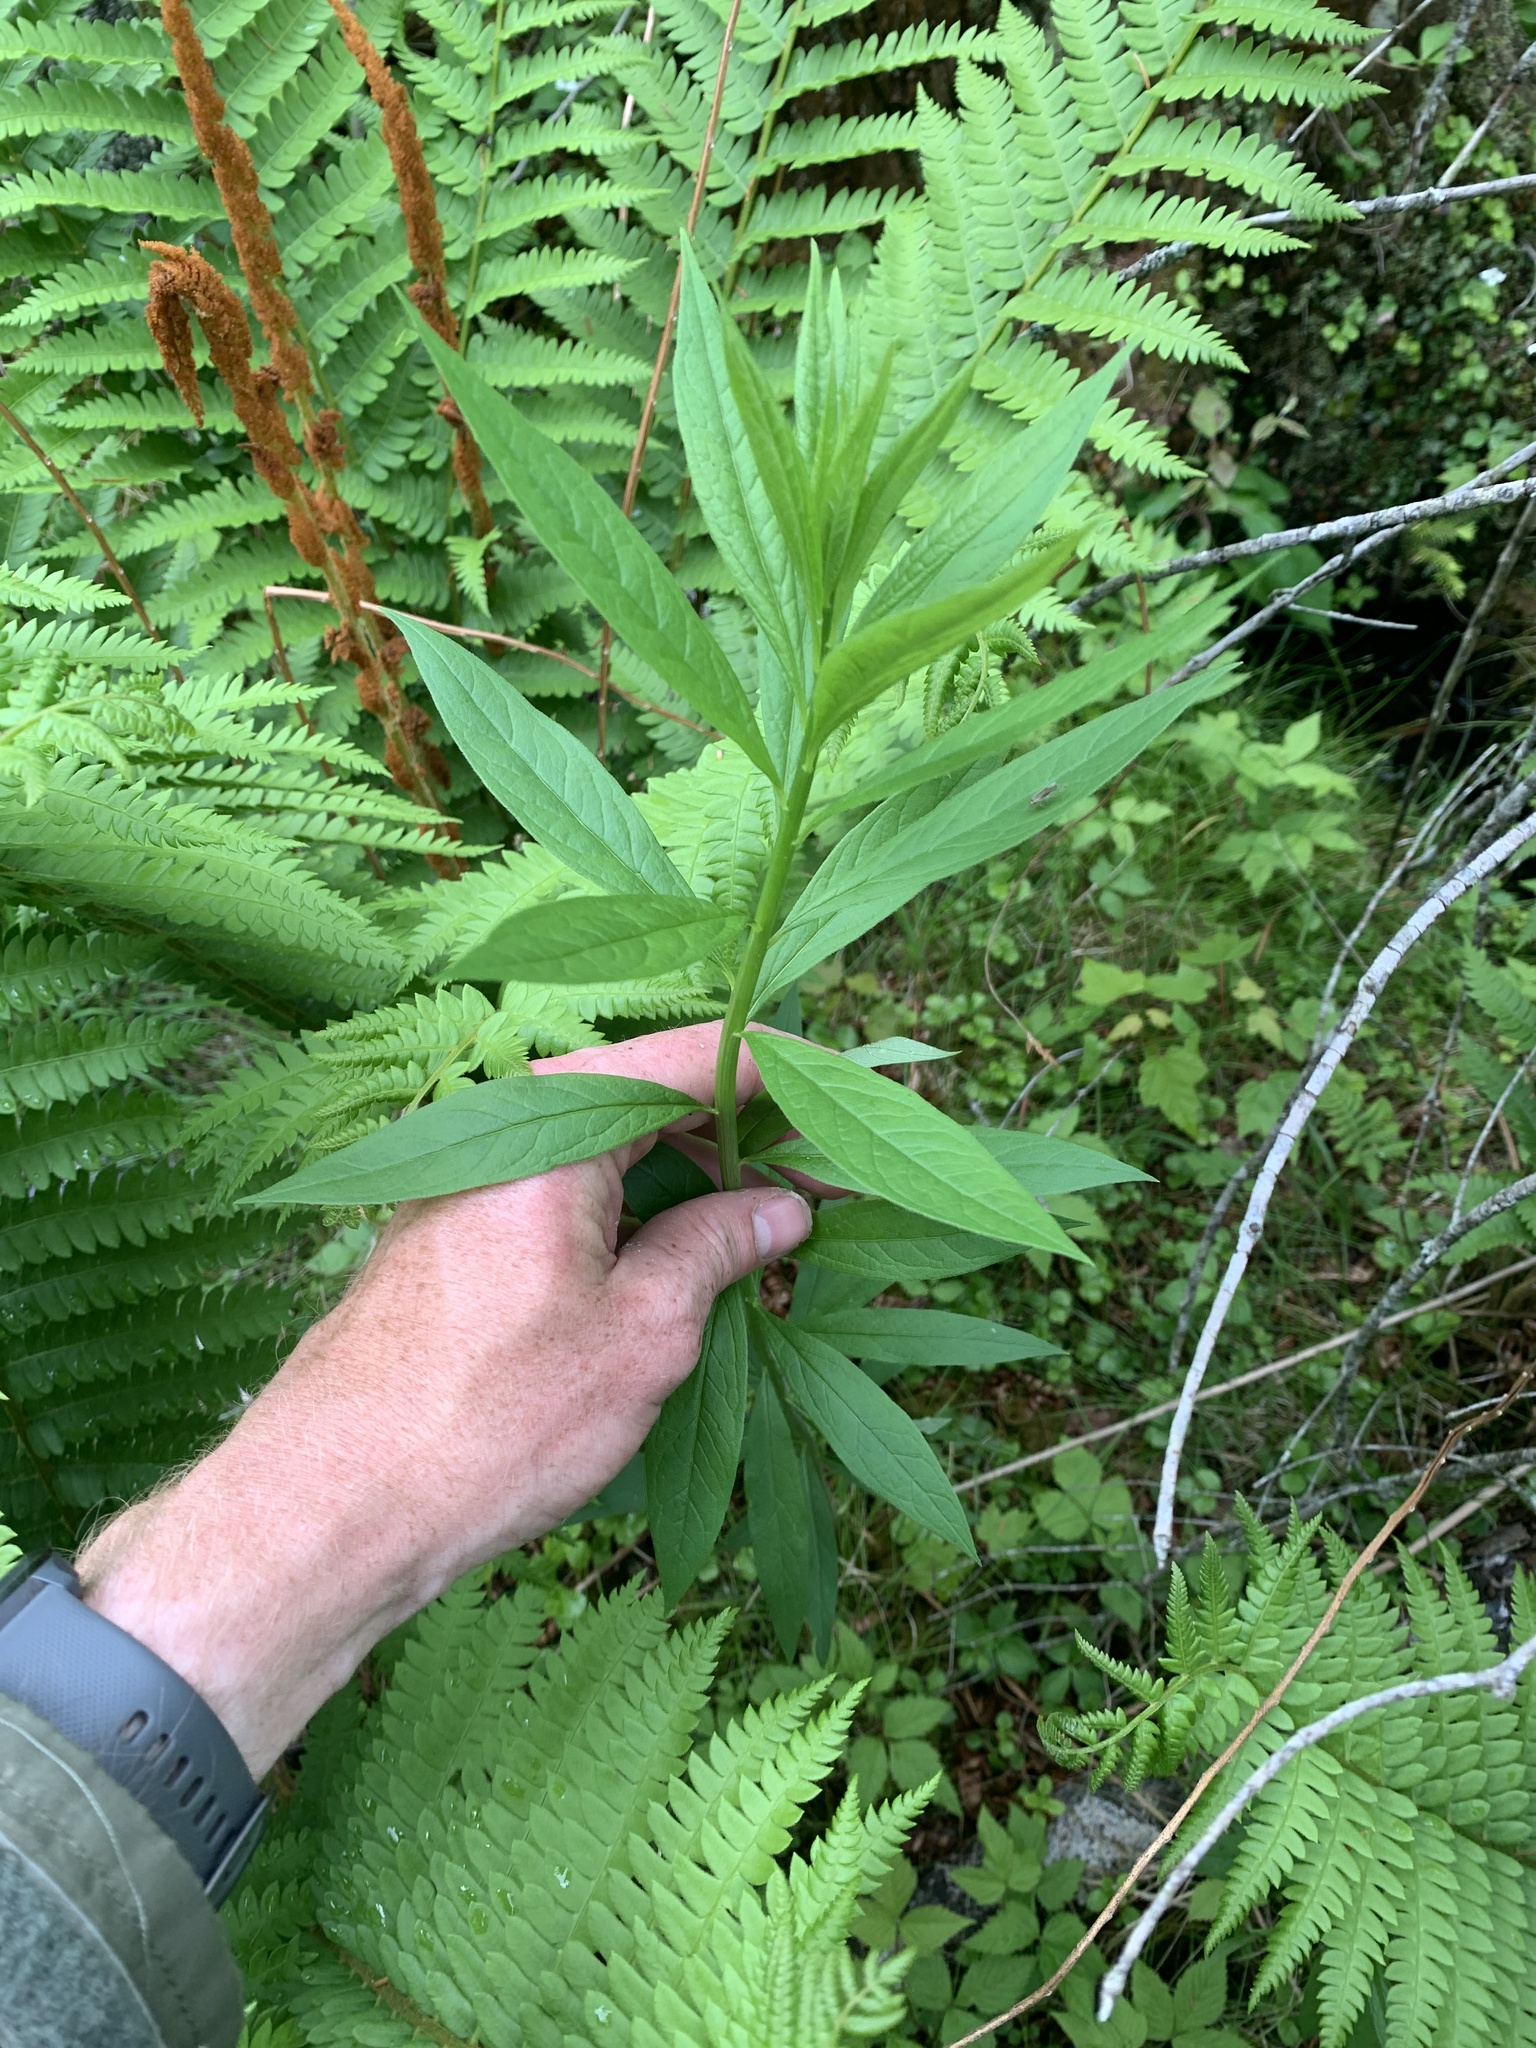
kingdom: Plantae
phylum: Tracheophyta
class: Magnoliopsida
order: Asterales
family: Asteraceae
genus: Doellingeria
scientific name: Doellingeria umbellata
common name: Flat-top white aster
